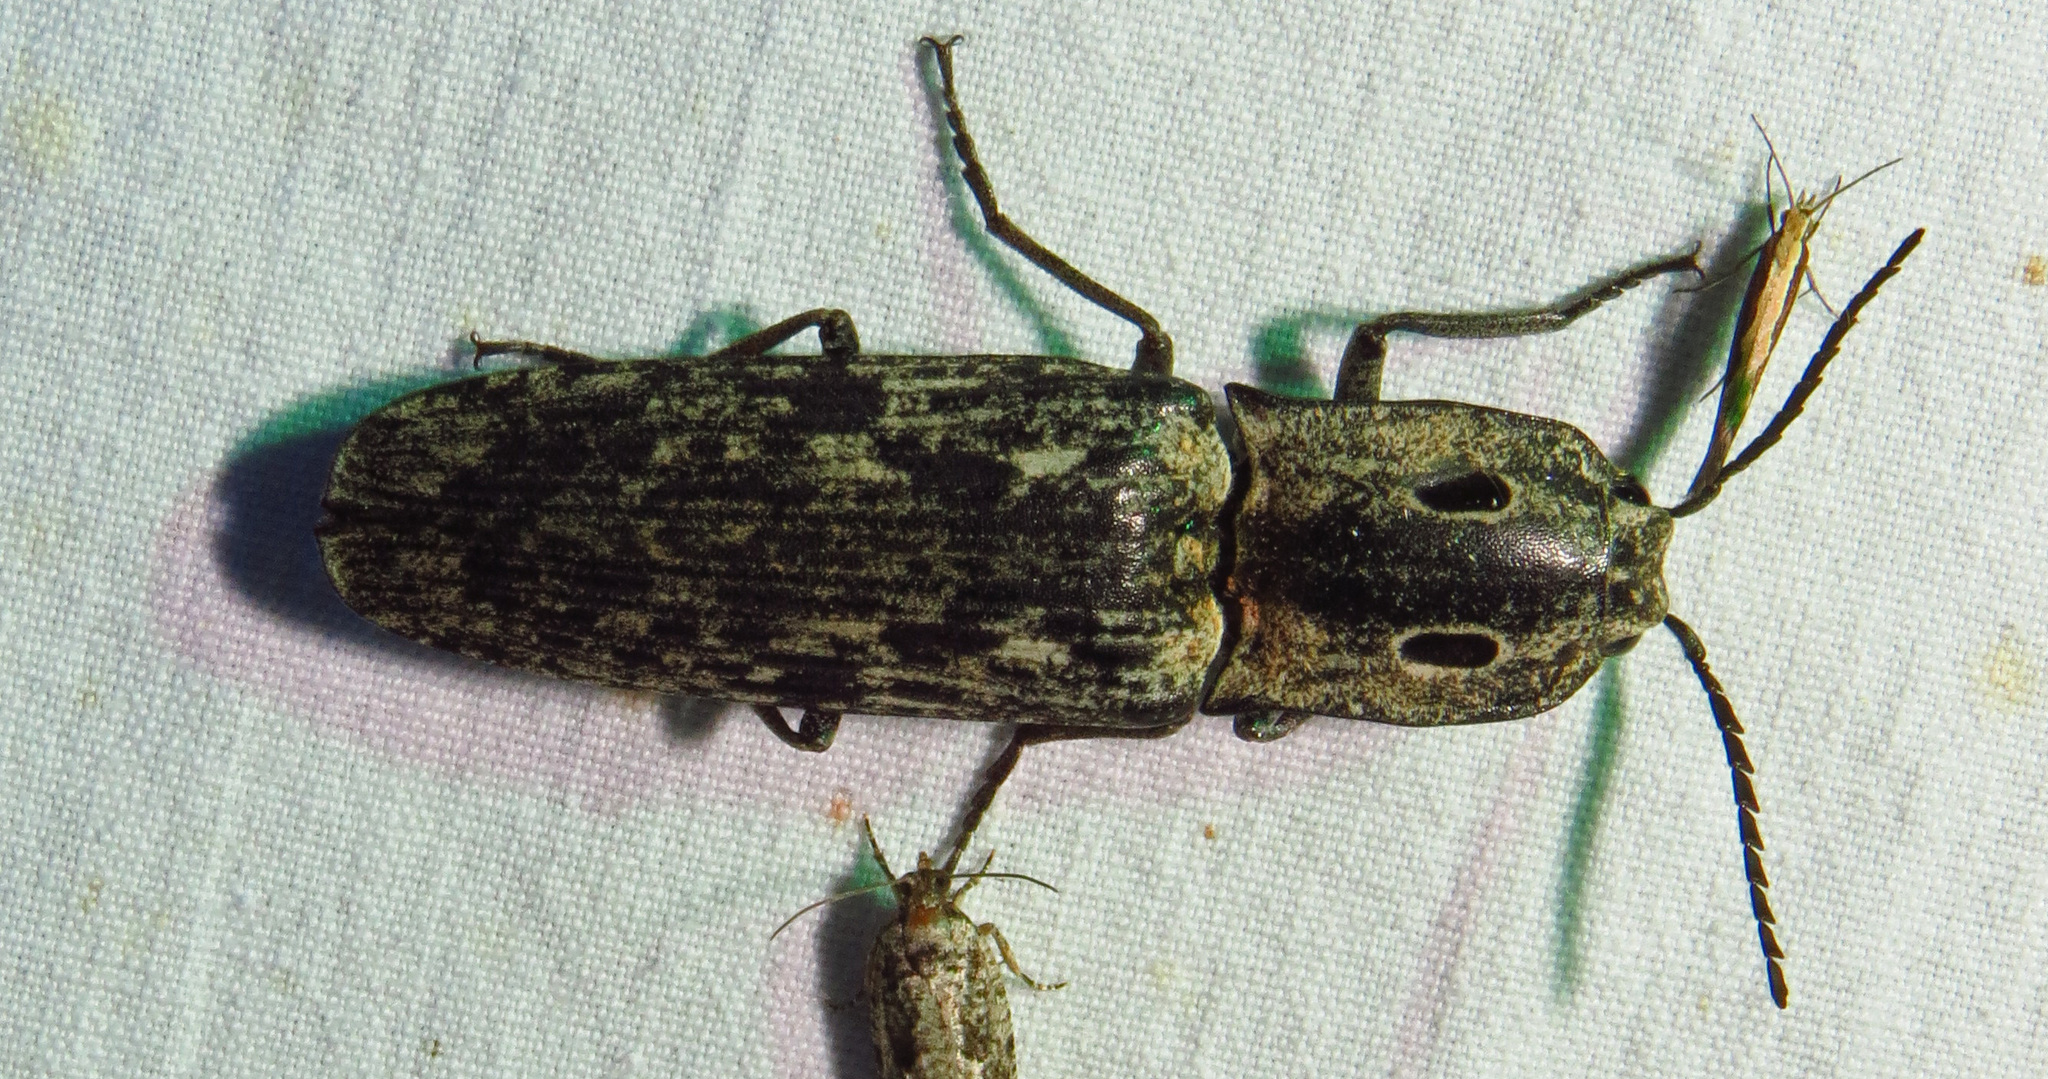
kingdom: Animalia
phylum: Arthropoda
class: Insecta
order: Coleoptera
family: Elateridae
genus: Alaus
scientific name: Alaus myops
